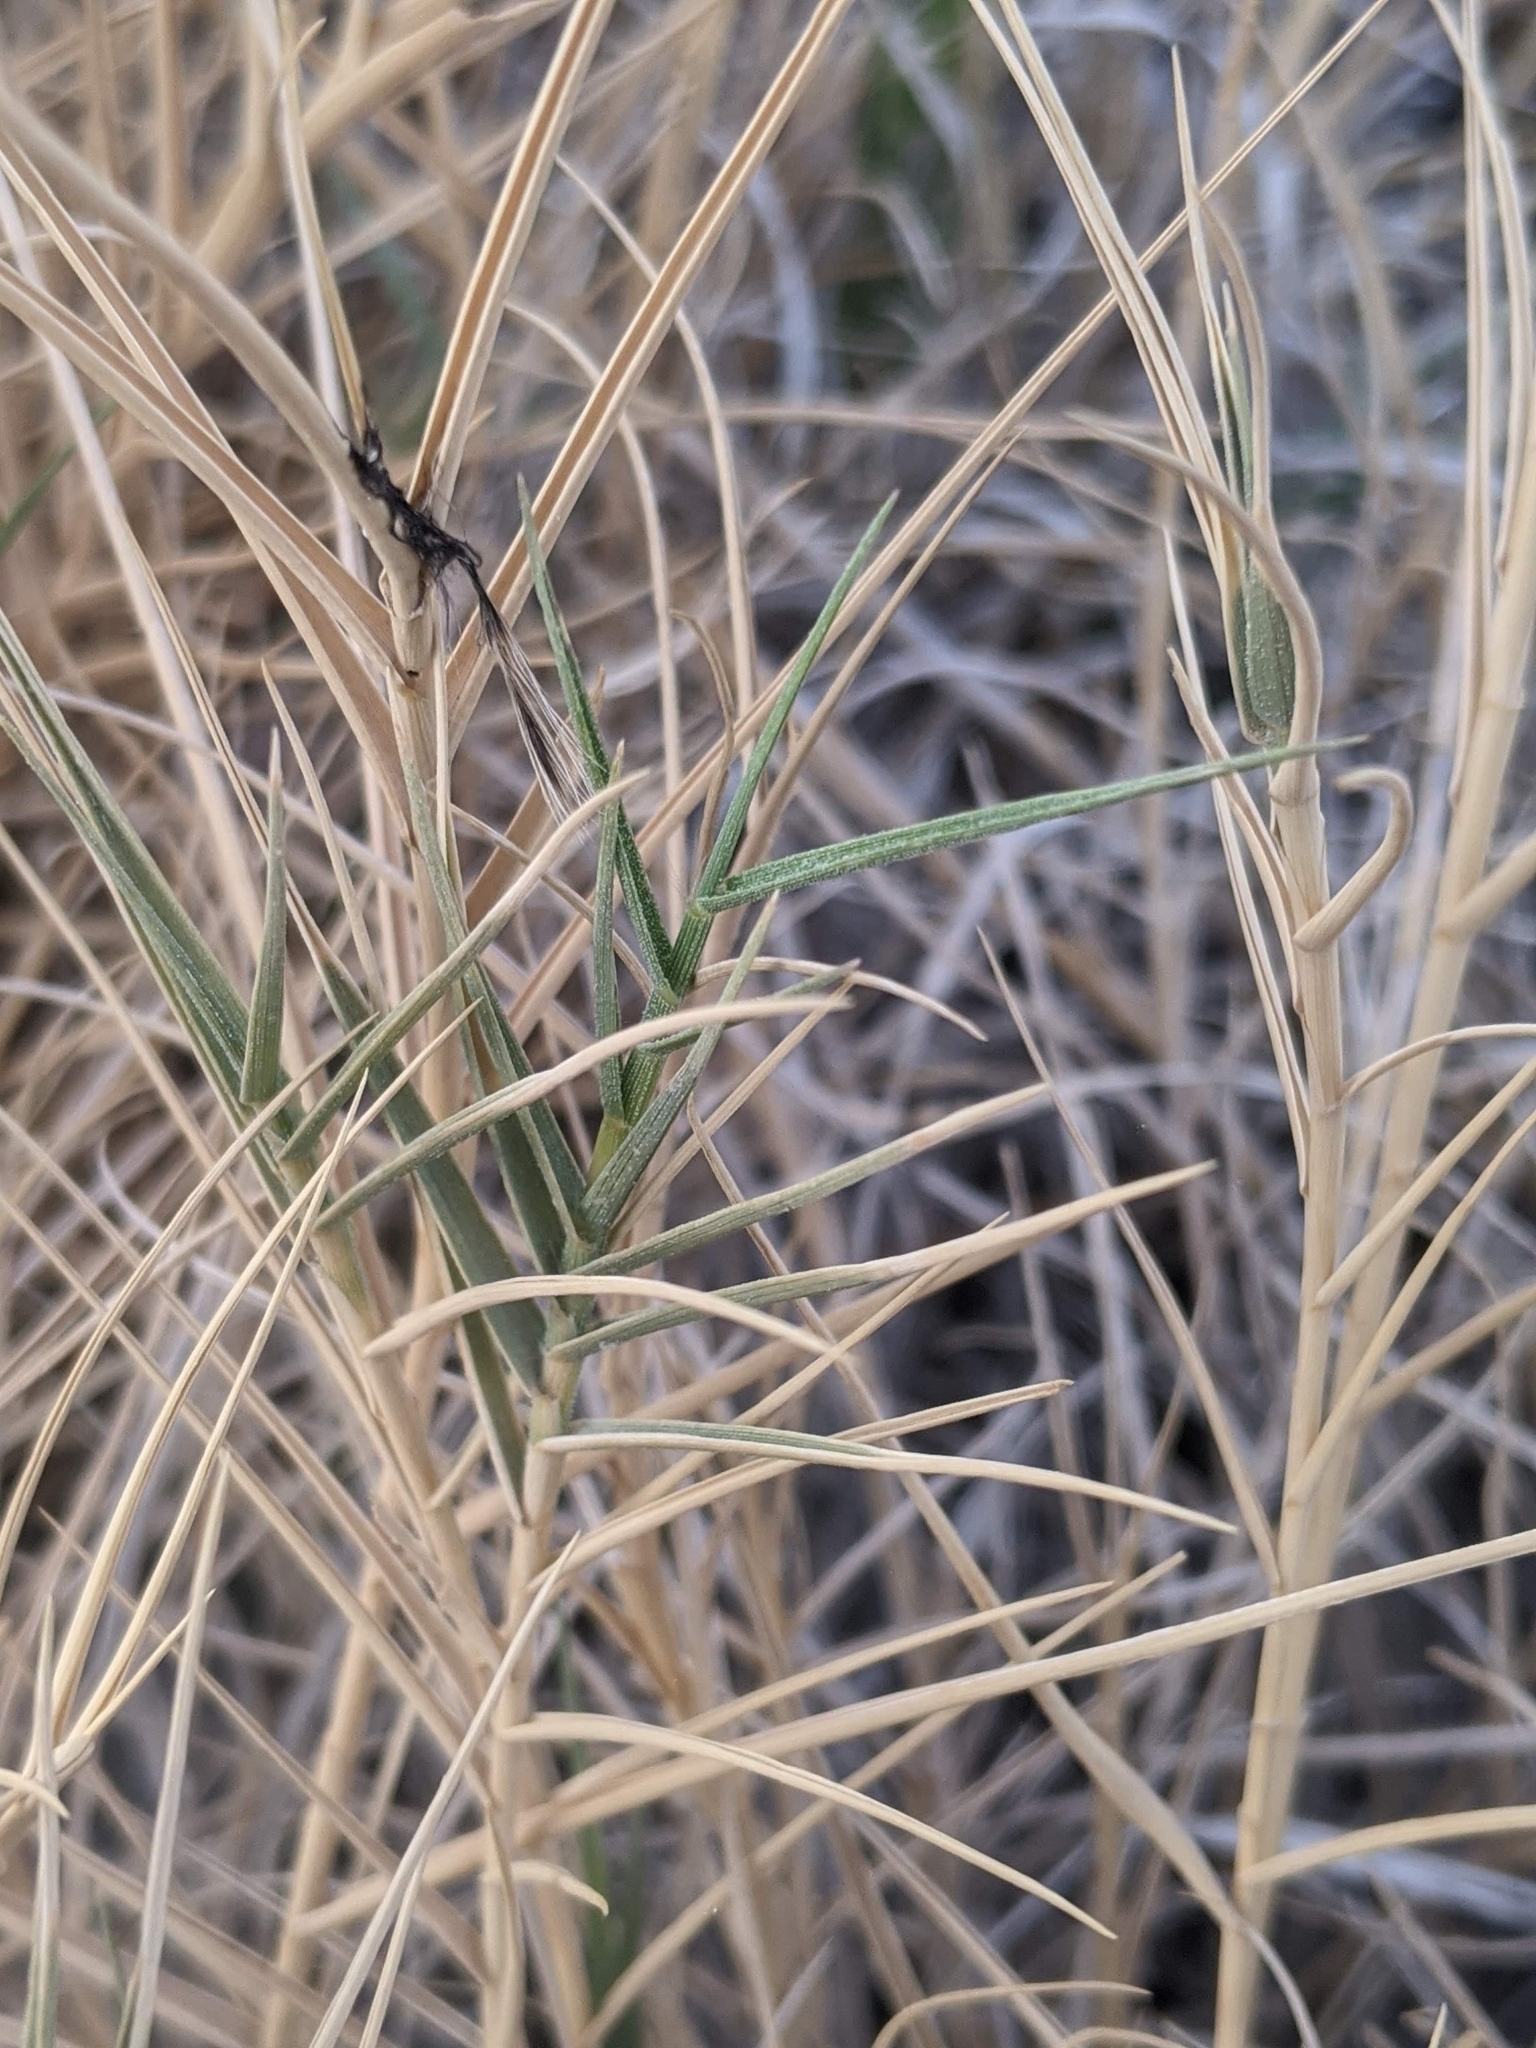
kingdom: Plantae
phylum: Tracheophyta
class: Liliopsida
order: Poales
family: Poaceae
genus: Distichlis
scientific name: Distichlis spicata
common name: Saltgrass
